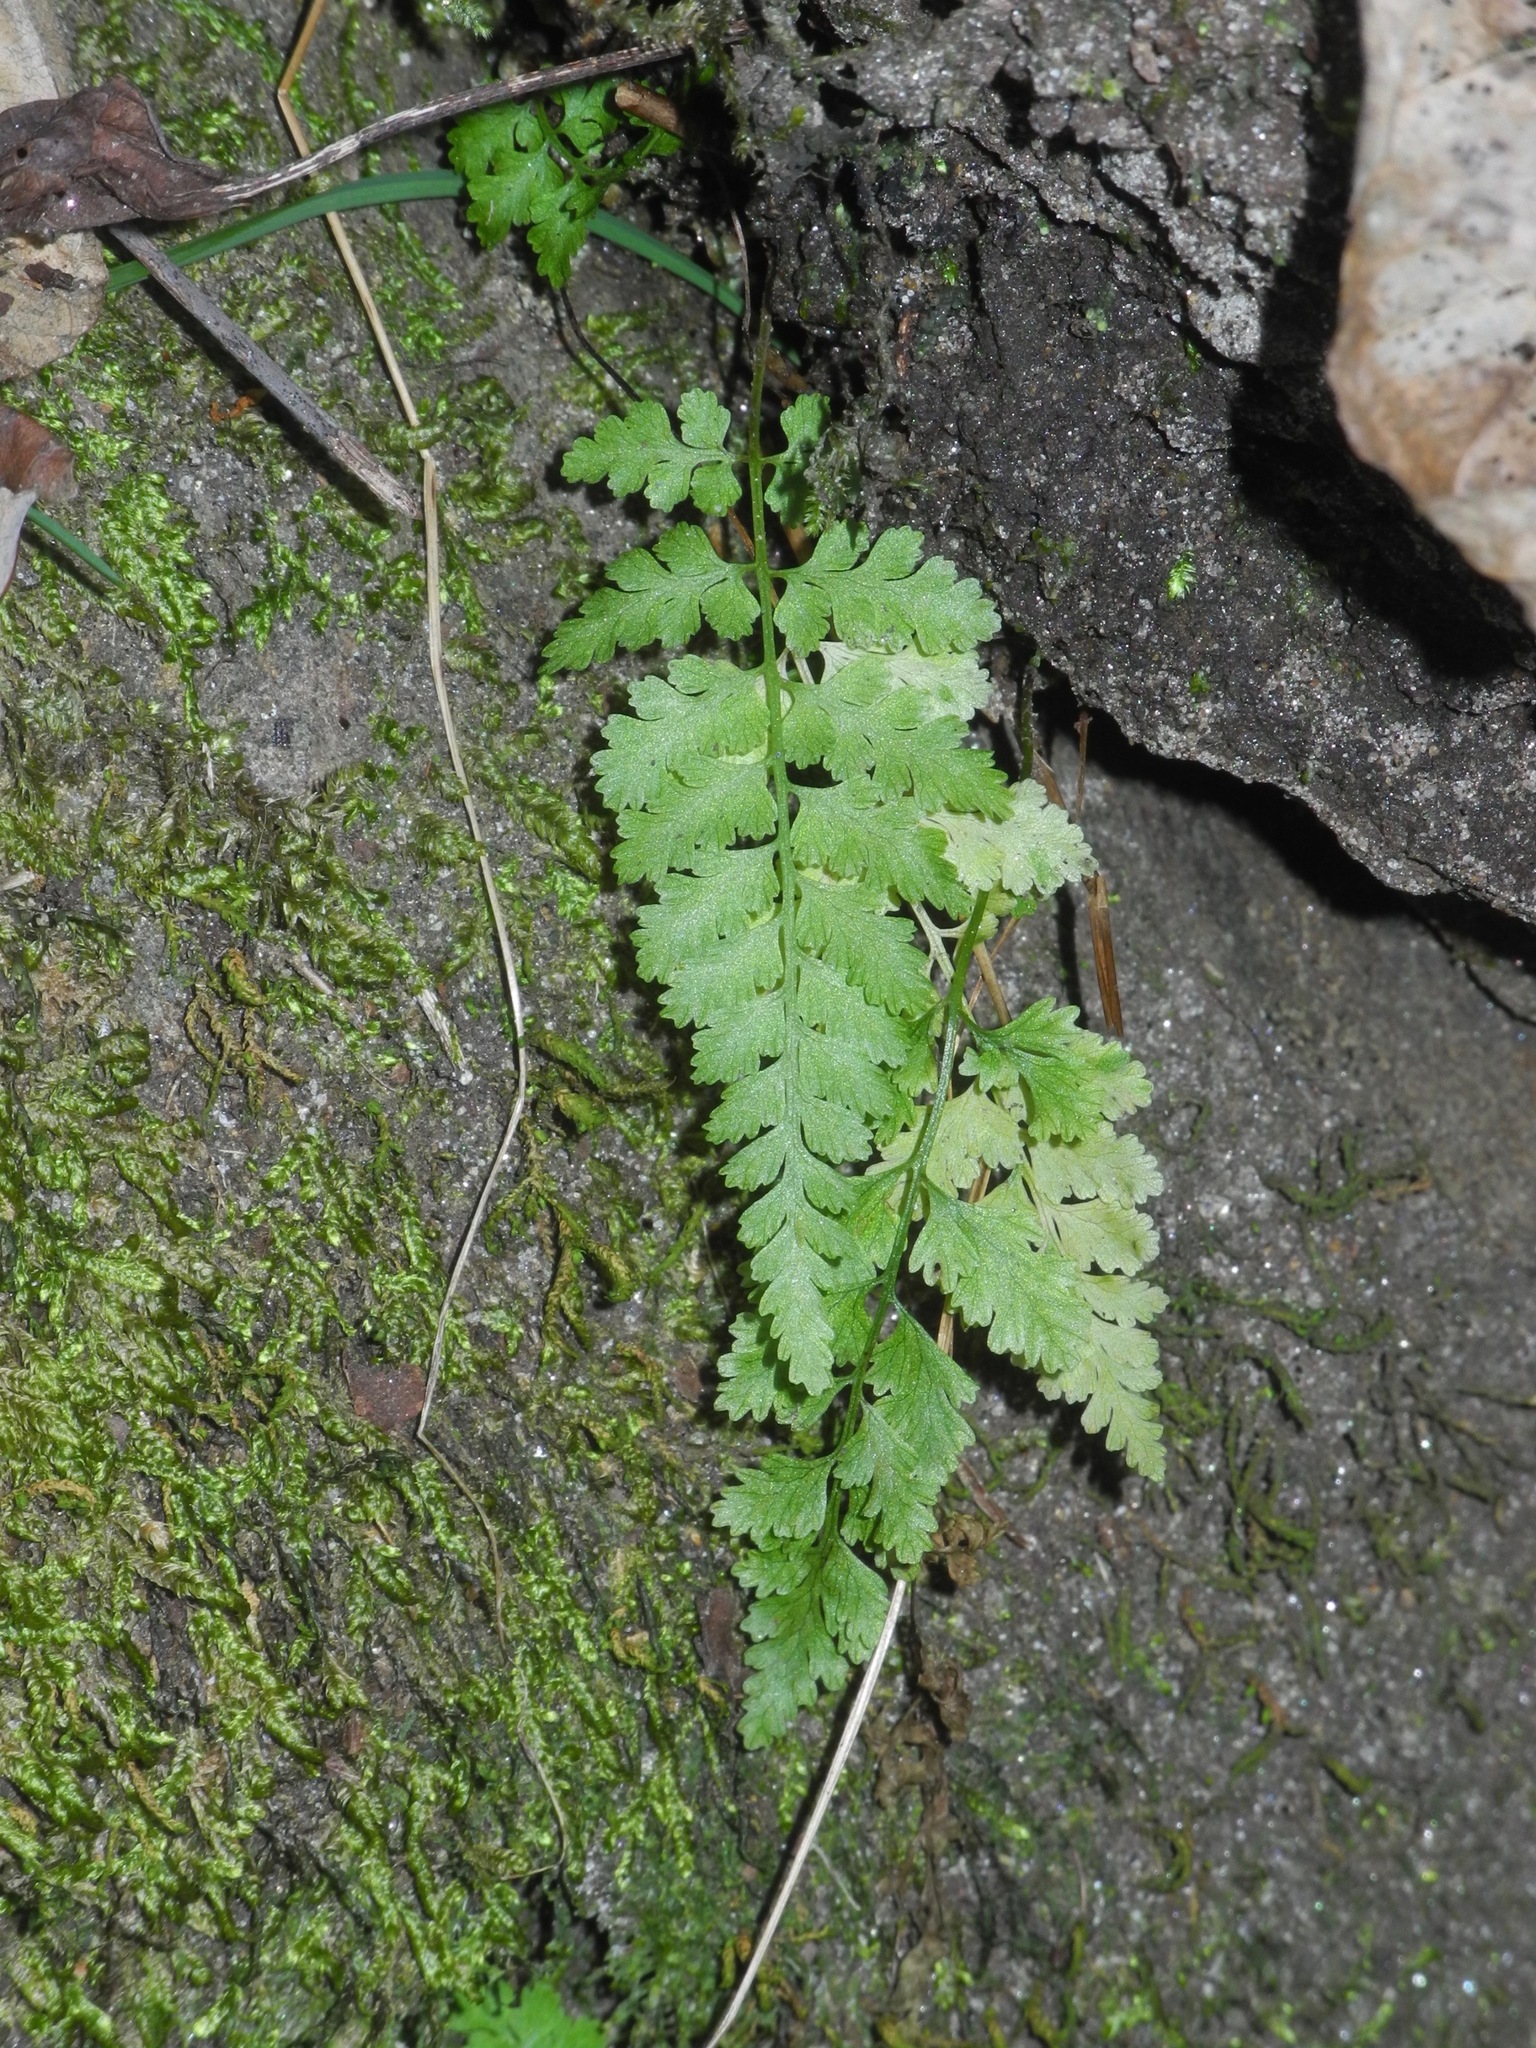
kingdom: Plantae
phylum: Tracheophyta
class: Polypodiopsida
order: Polypodiales
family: Cystopteridaceae
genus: Cystopteris
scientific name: Cystopteris protrusa
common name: Lowland brittle fern
